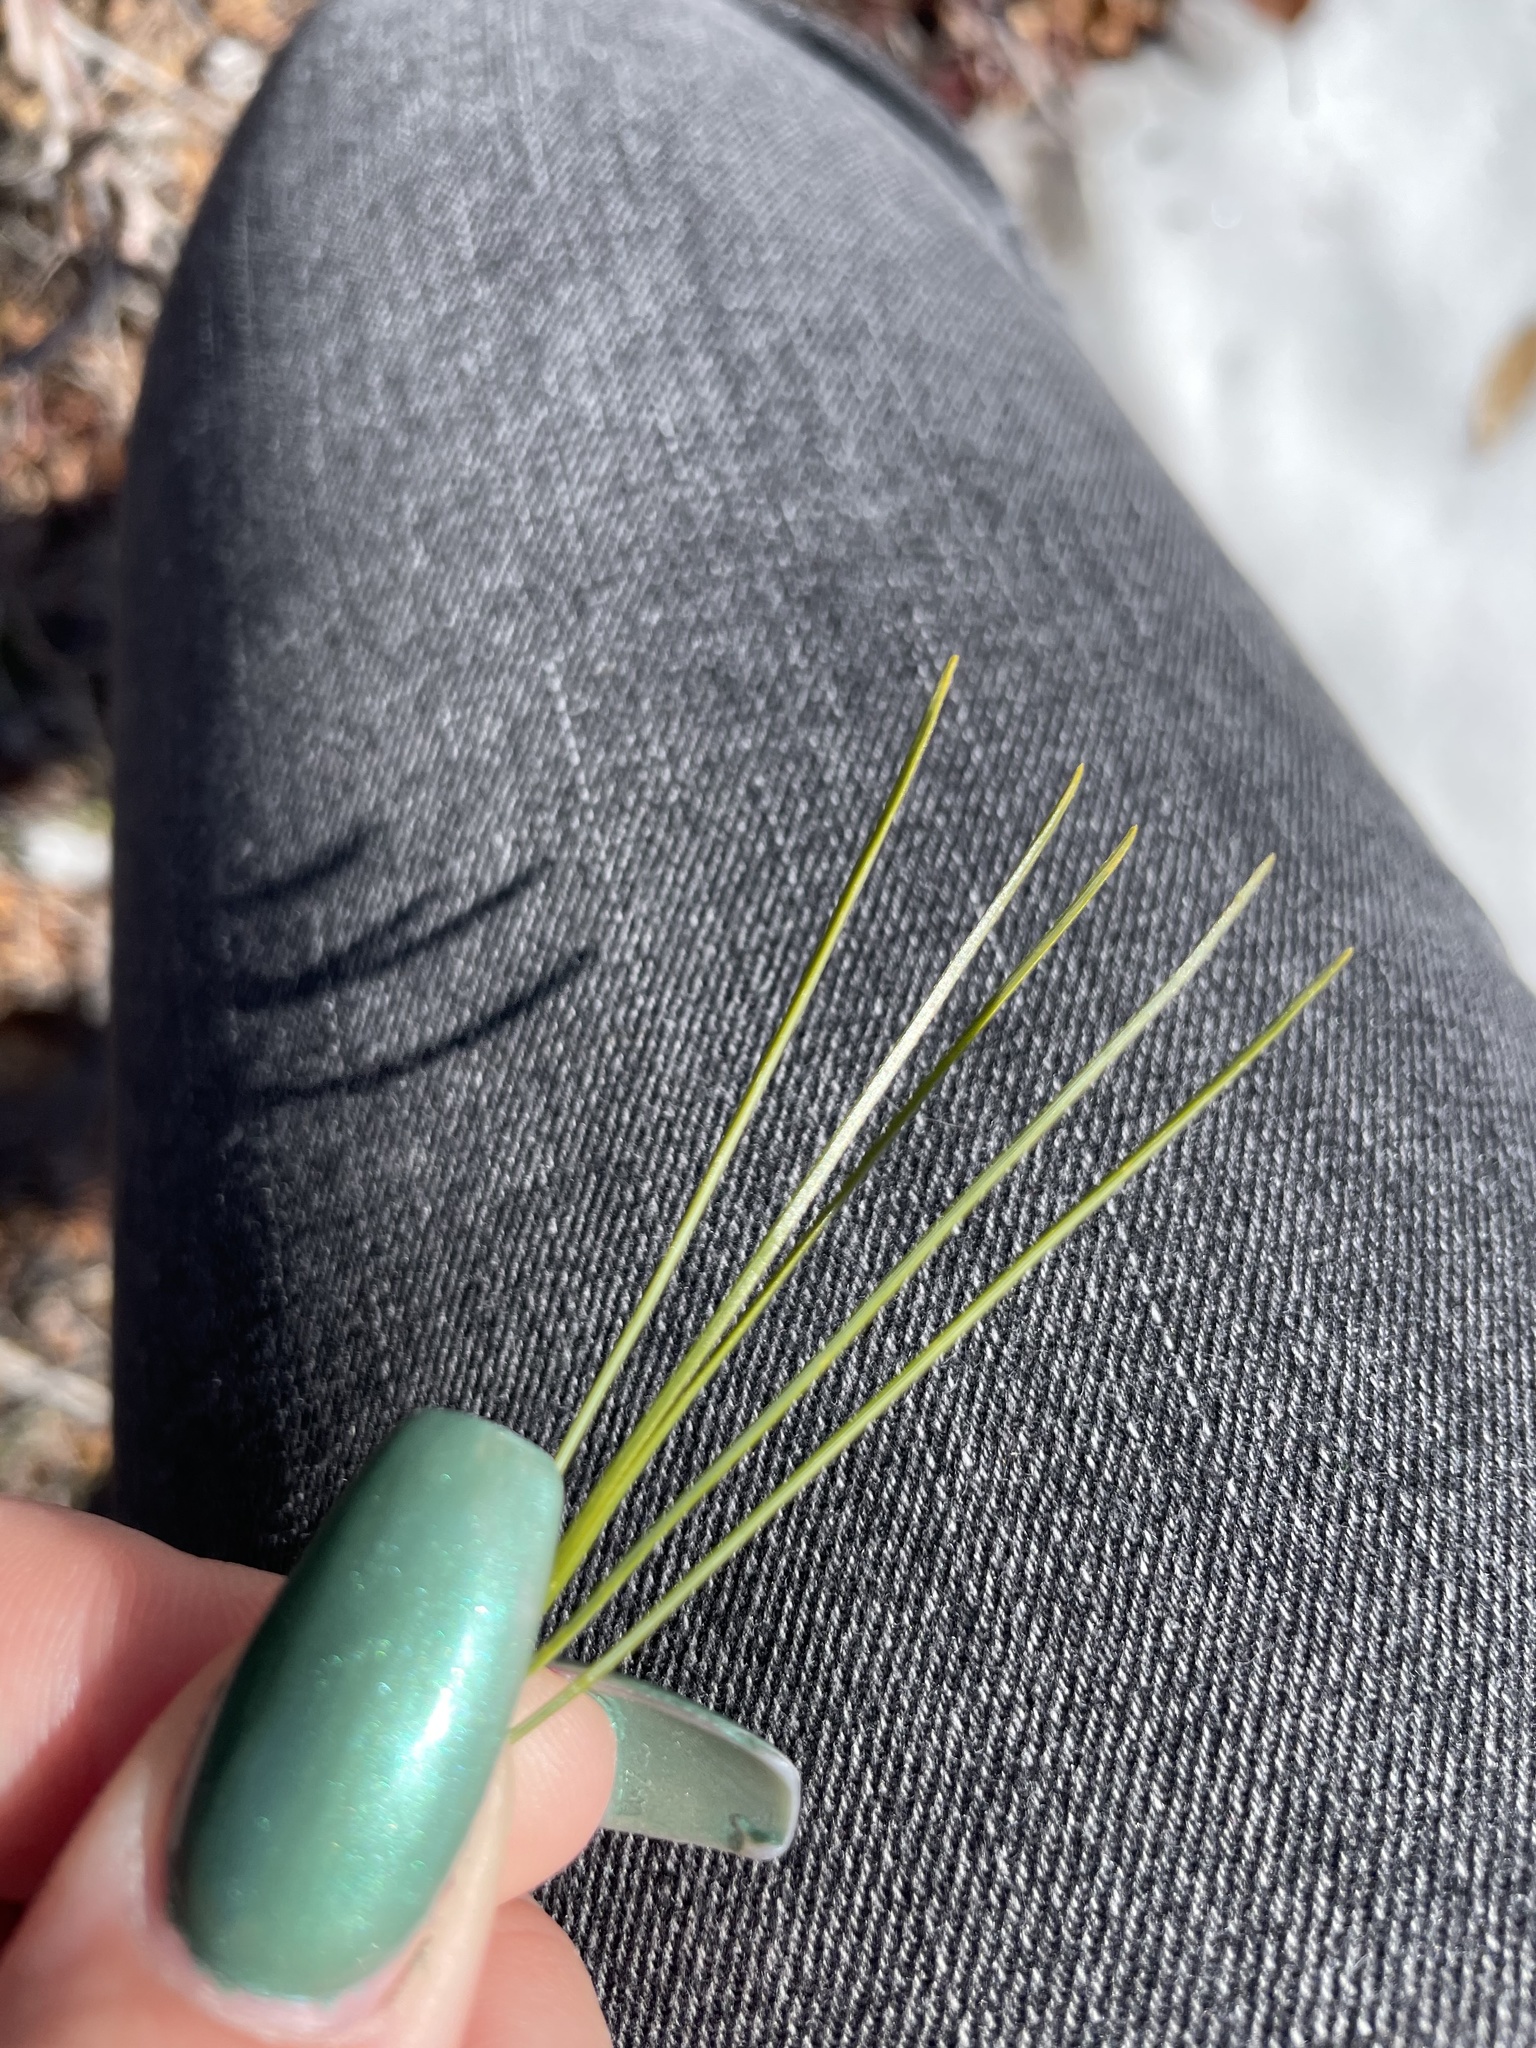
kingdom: Plantae
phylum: Tracheophyta
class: Pinopsida
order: Pinales
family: Pinaceae
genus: Pinus
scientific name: Pinus strobus
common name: Weymouth pine
